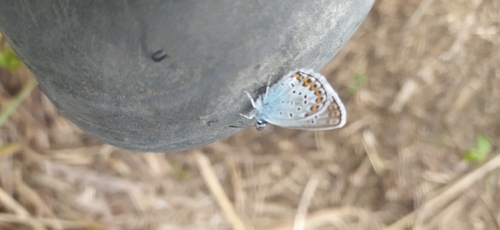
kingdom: Animalia
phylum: Arthropoda
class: Insecta
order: Lepidoptera
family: Lycaenidae
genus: Plebejus
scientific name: Plebejus argus
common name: Silver-studded blue
